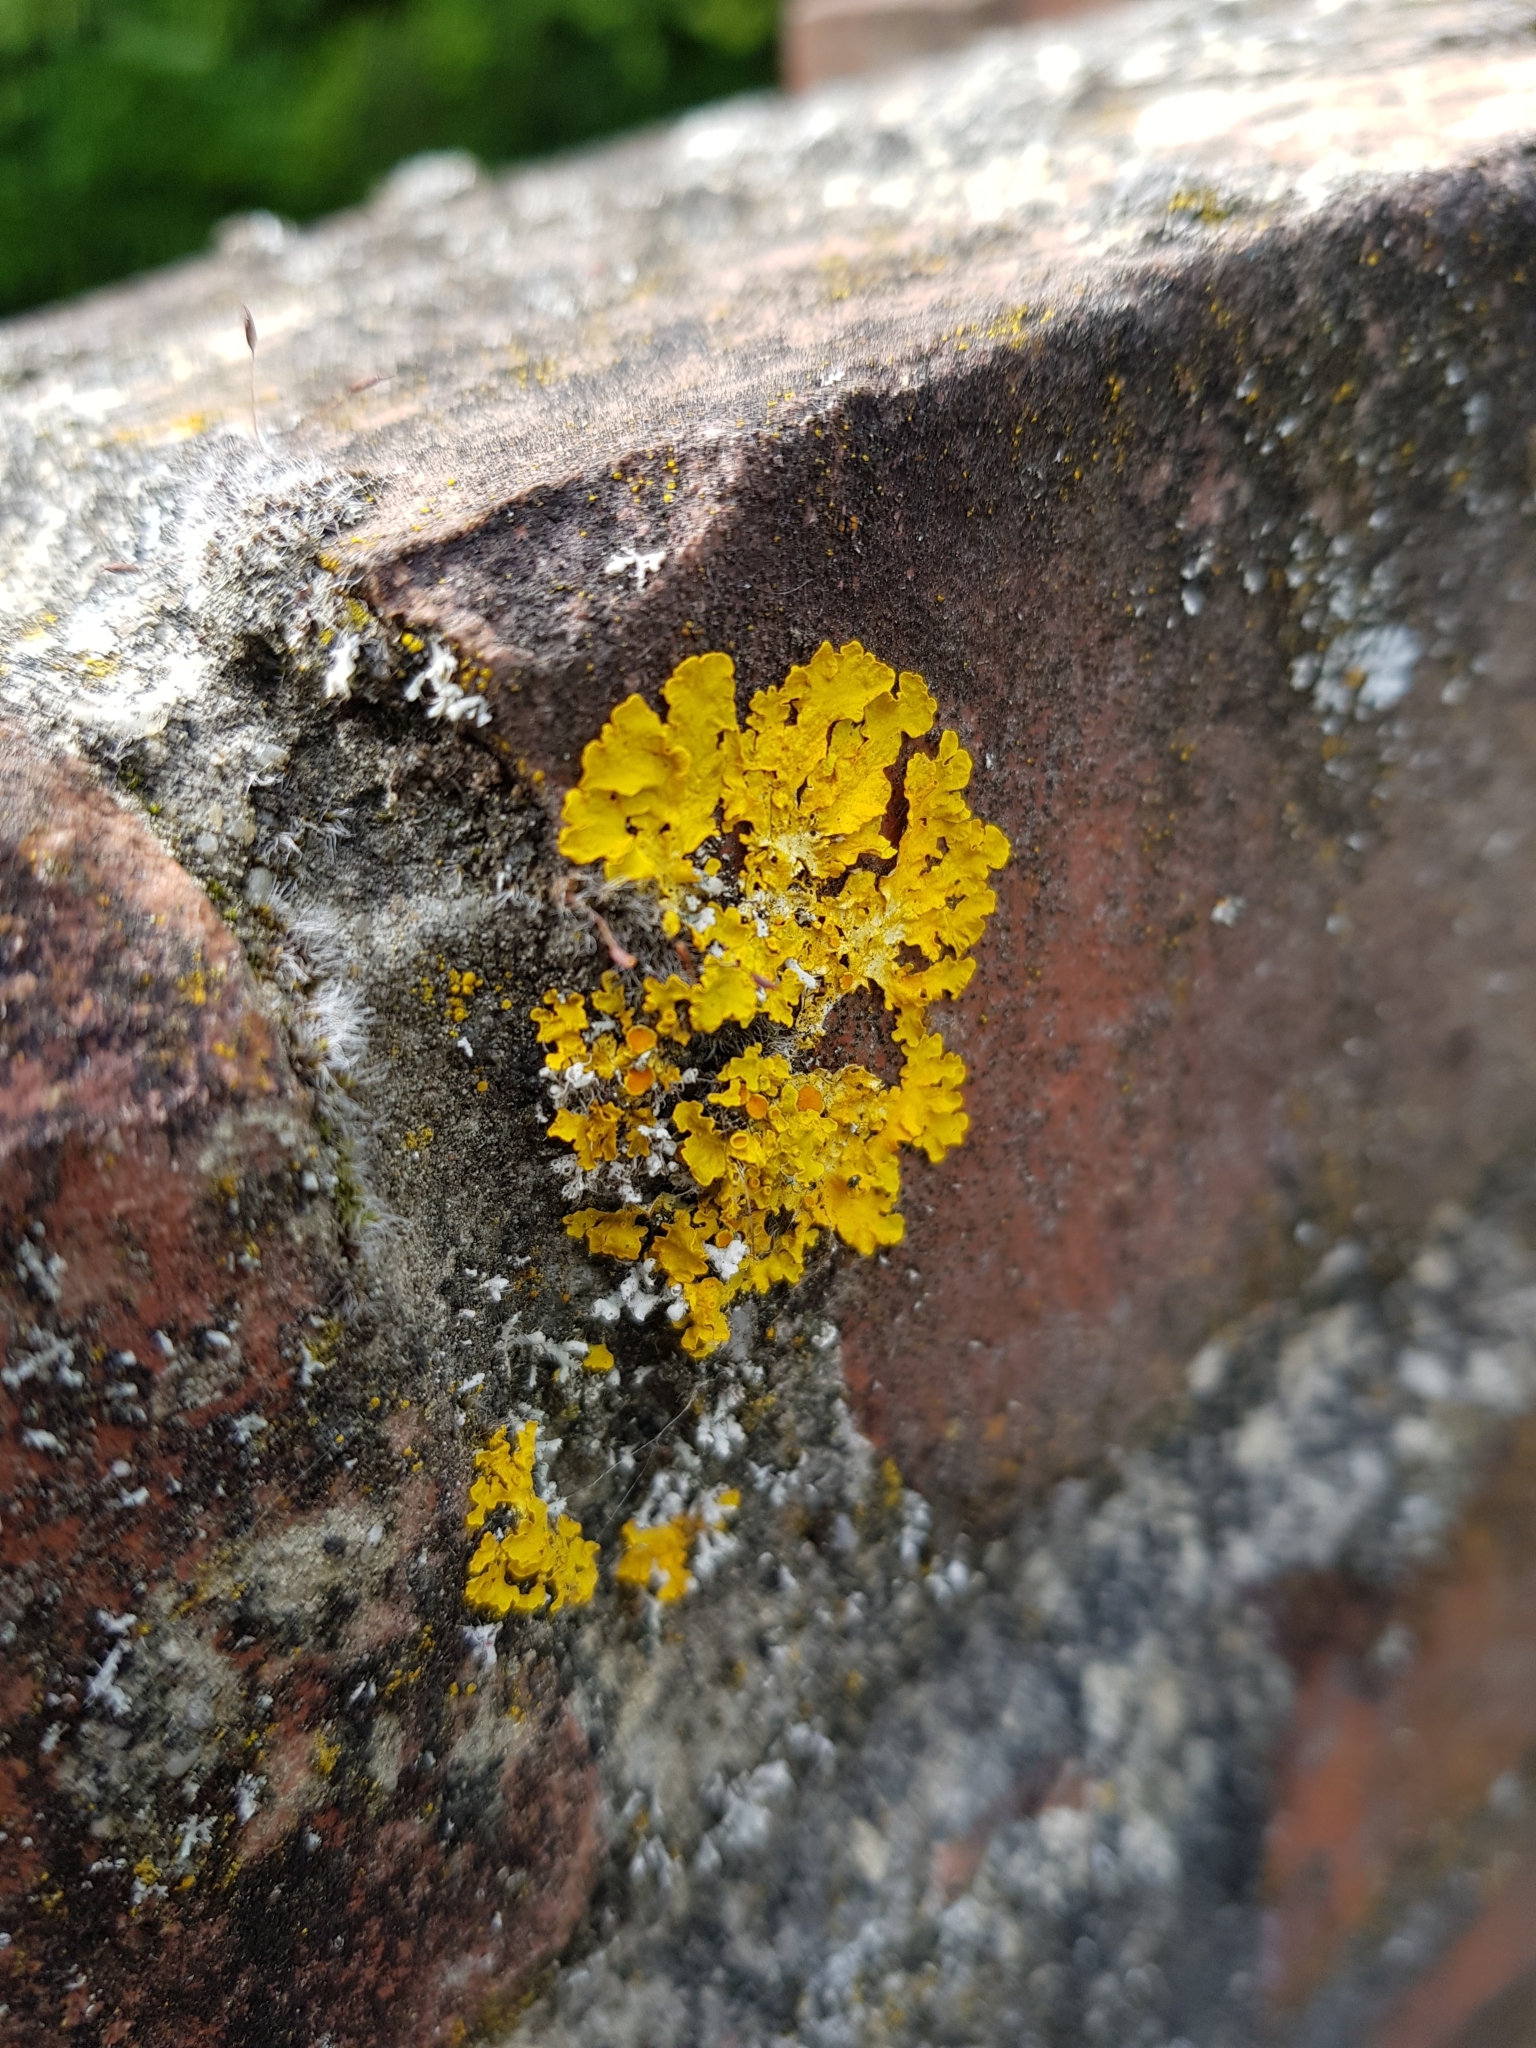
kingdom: Fungi
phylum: Ascomycota
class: Lecanoromycetes
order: Teloschistales
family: Teloschistaceae
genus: Xanthoria
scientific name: Xanthoria parietina
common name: Common orange lichen
